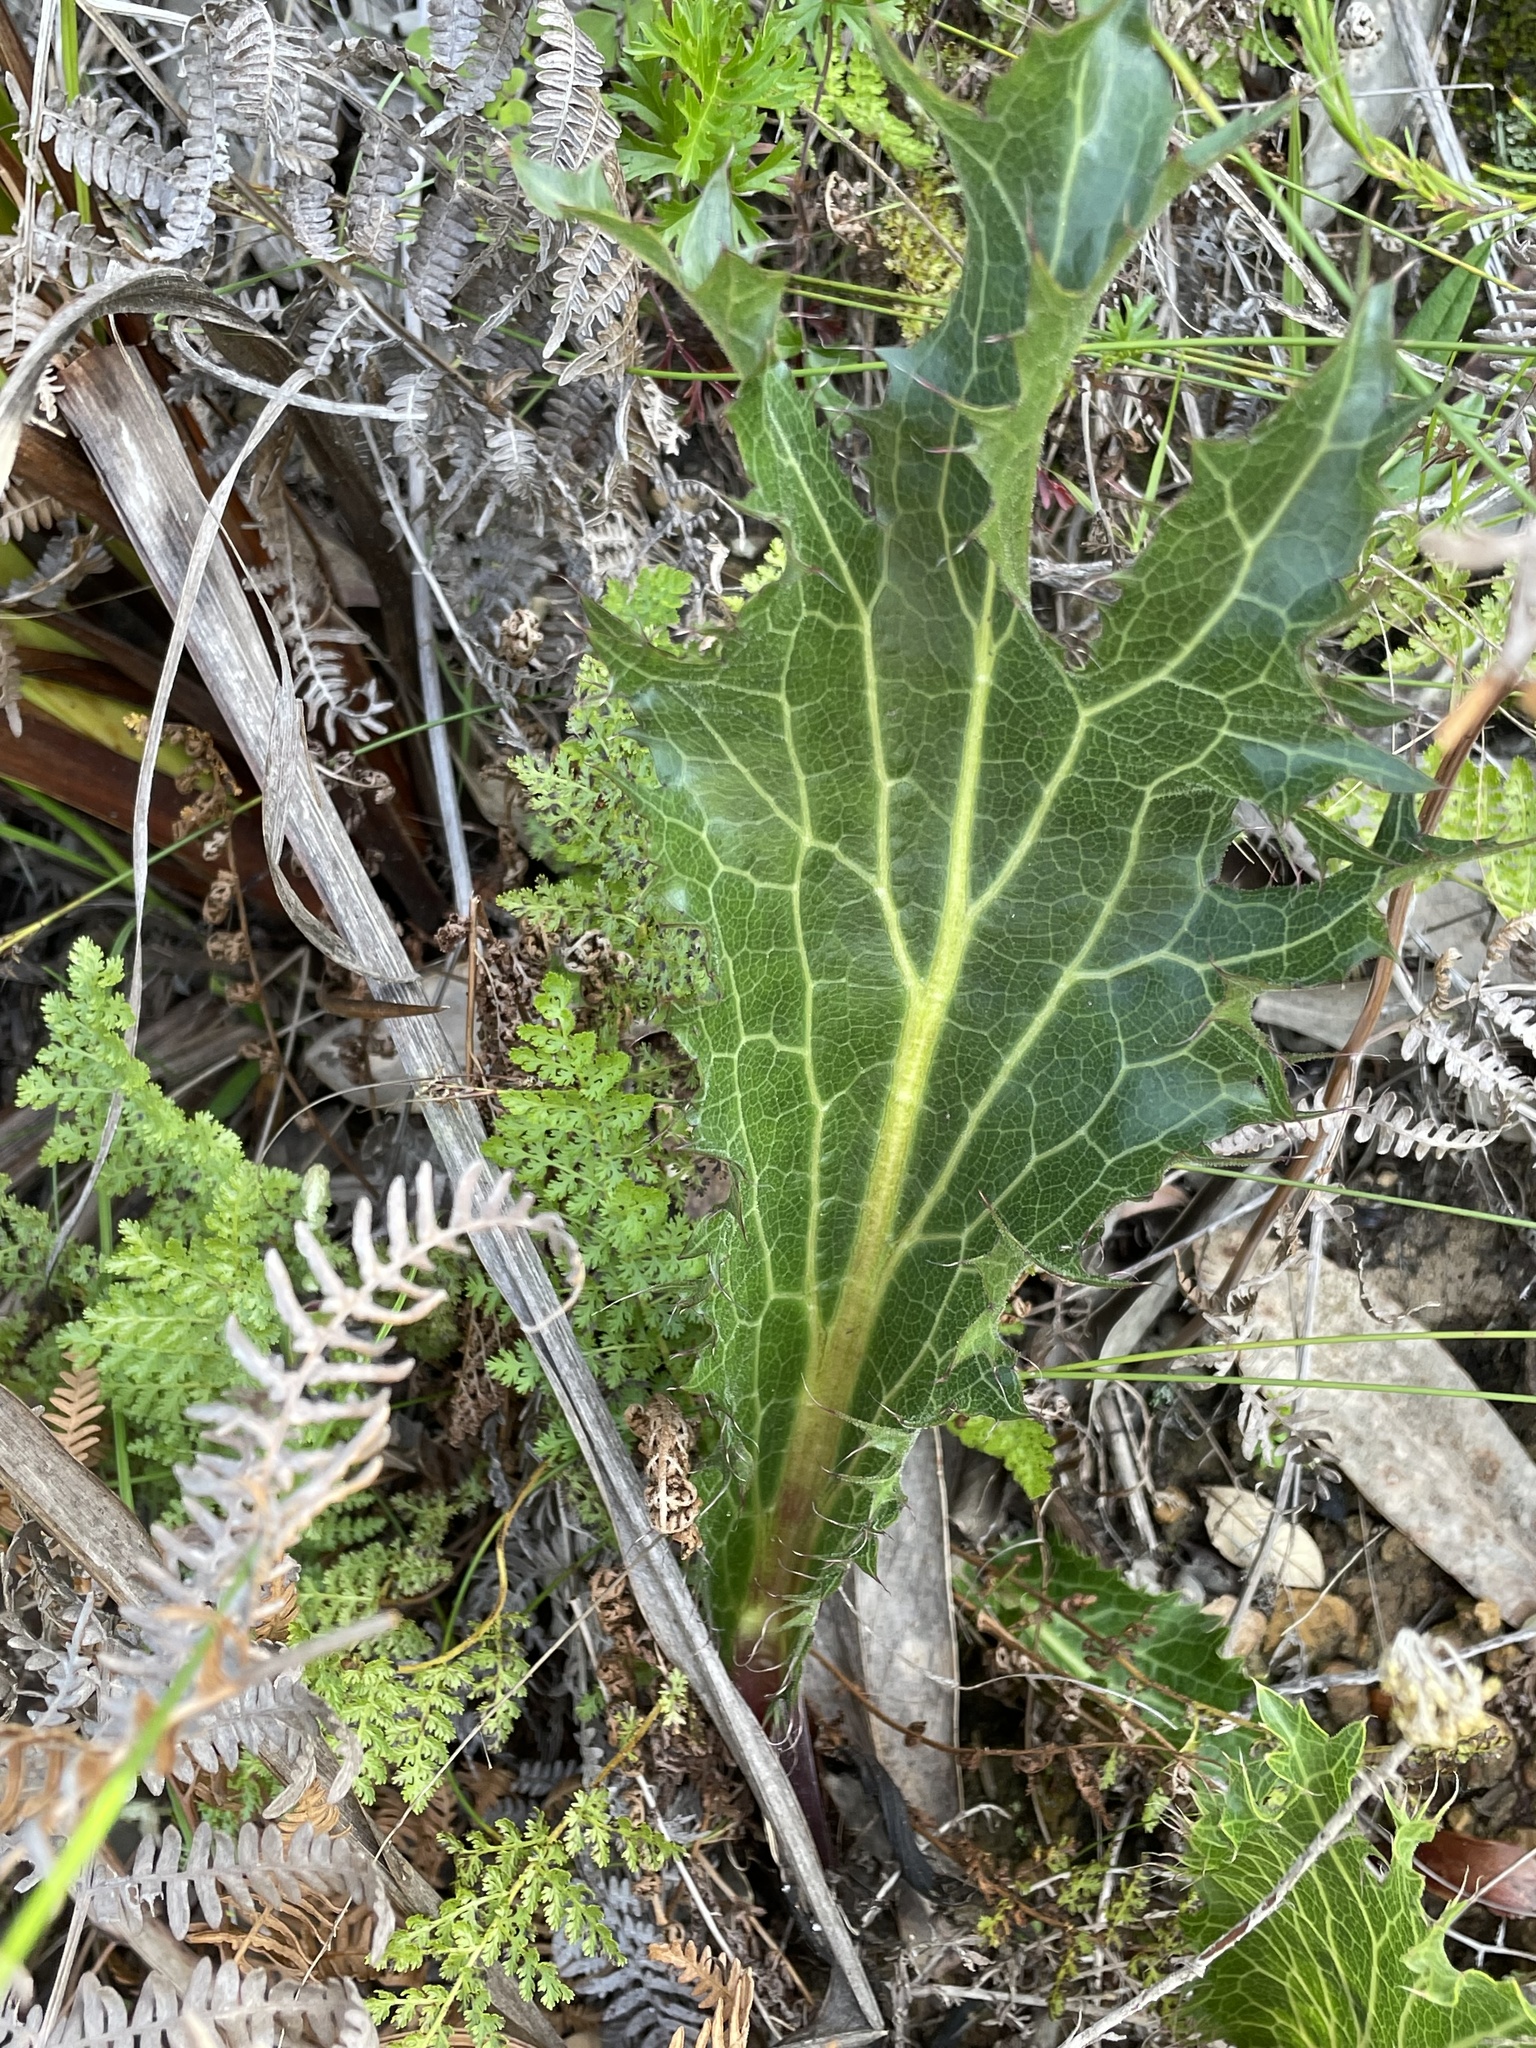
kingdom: Plantae
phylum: Tracheophyta
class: Magnoliopsida
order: Apiales
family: Apiaceae
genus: Lichtensteinia
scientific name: Lichtensteinia lacera
